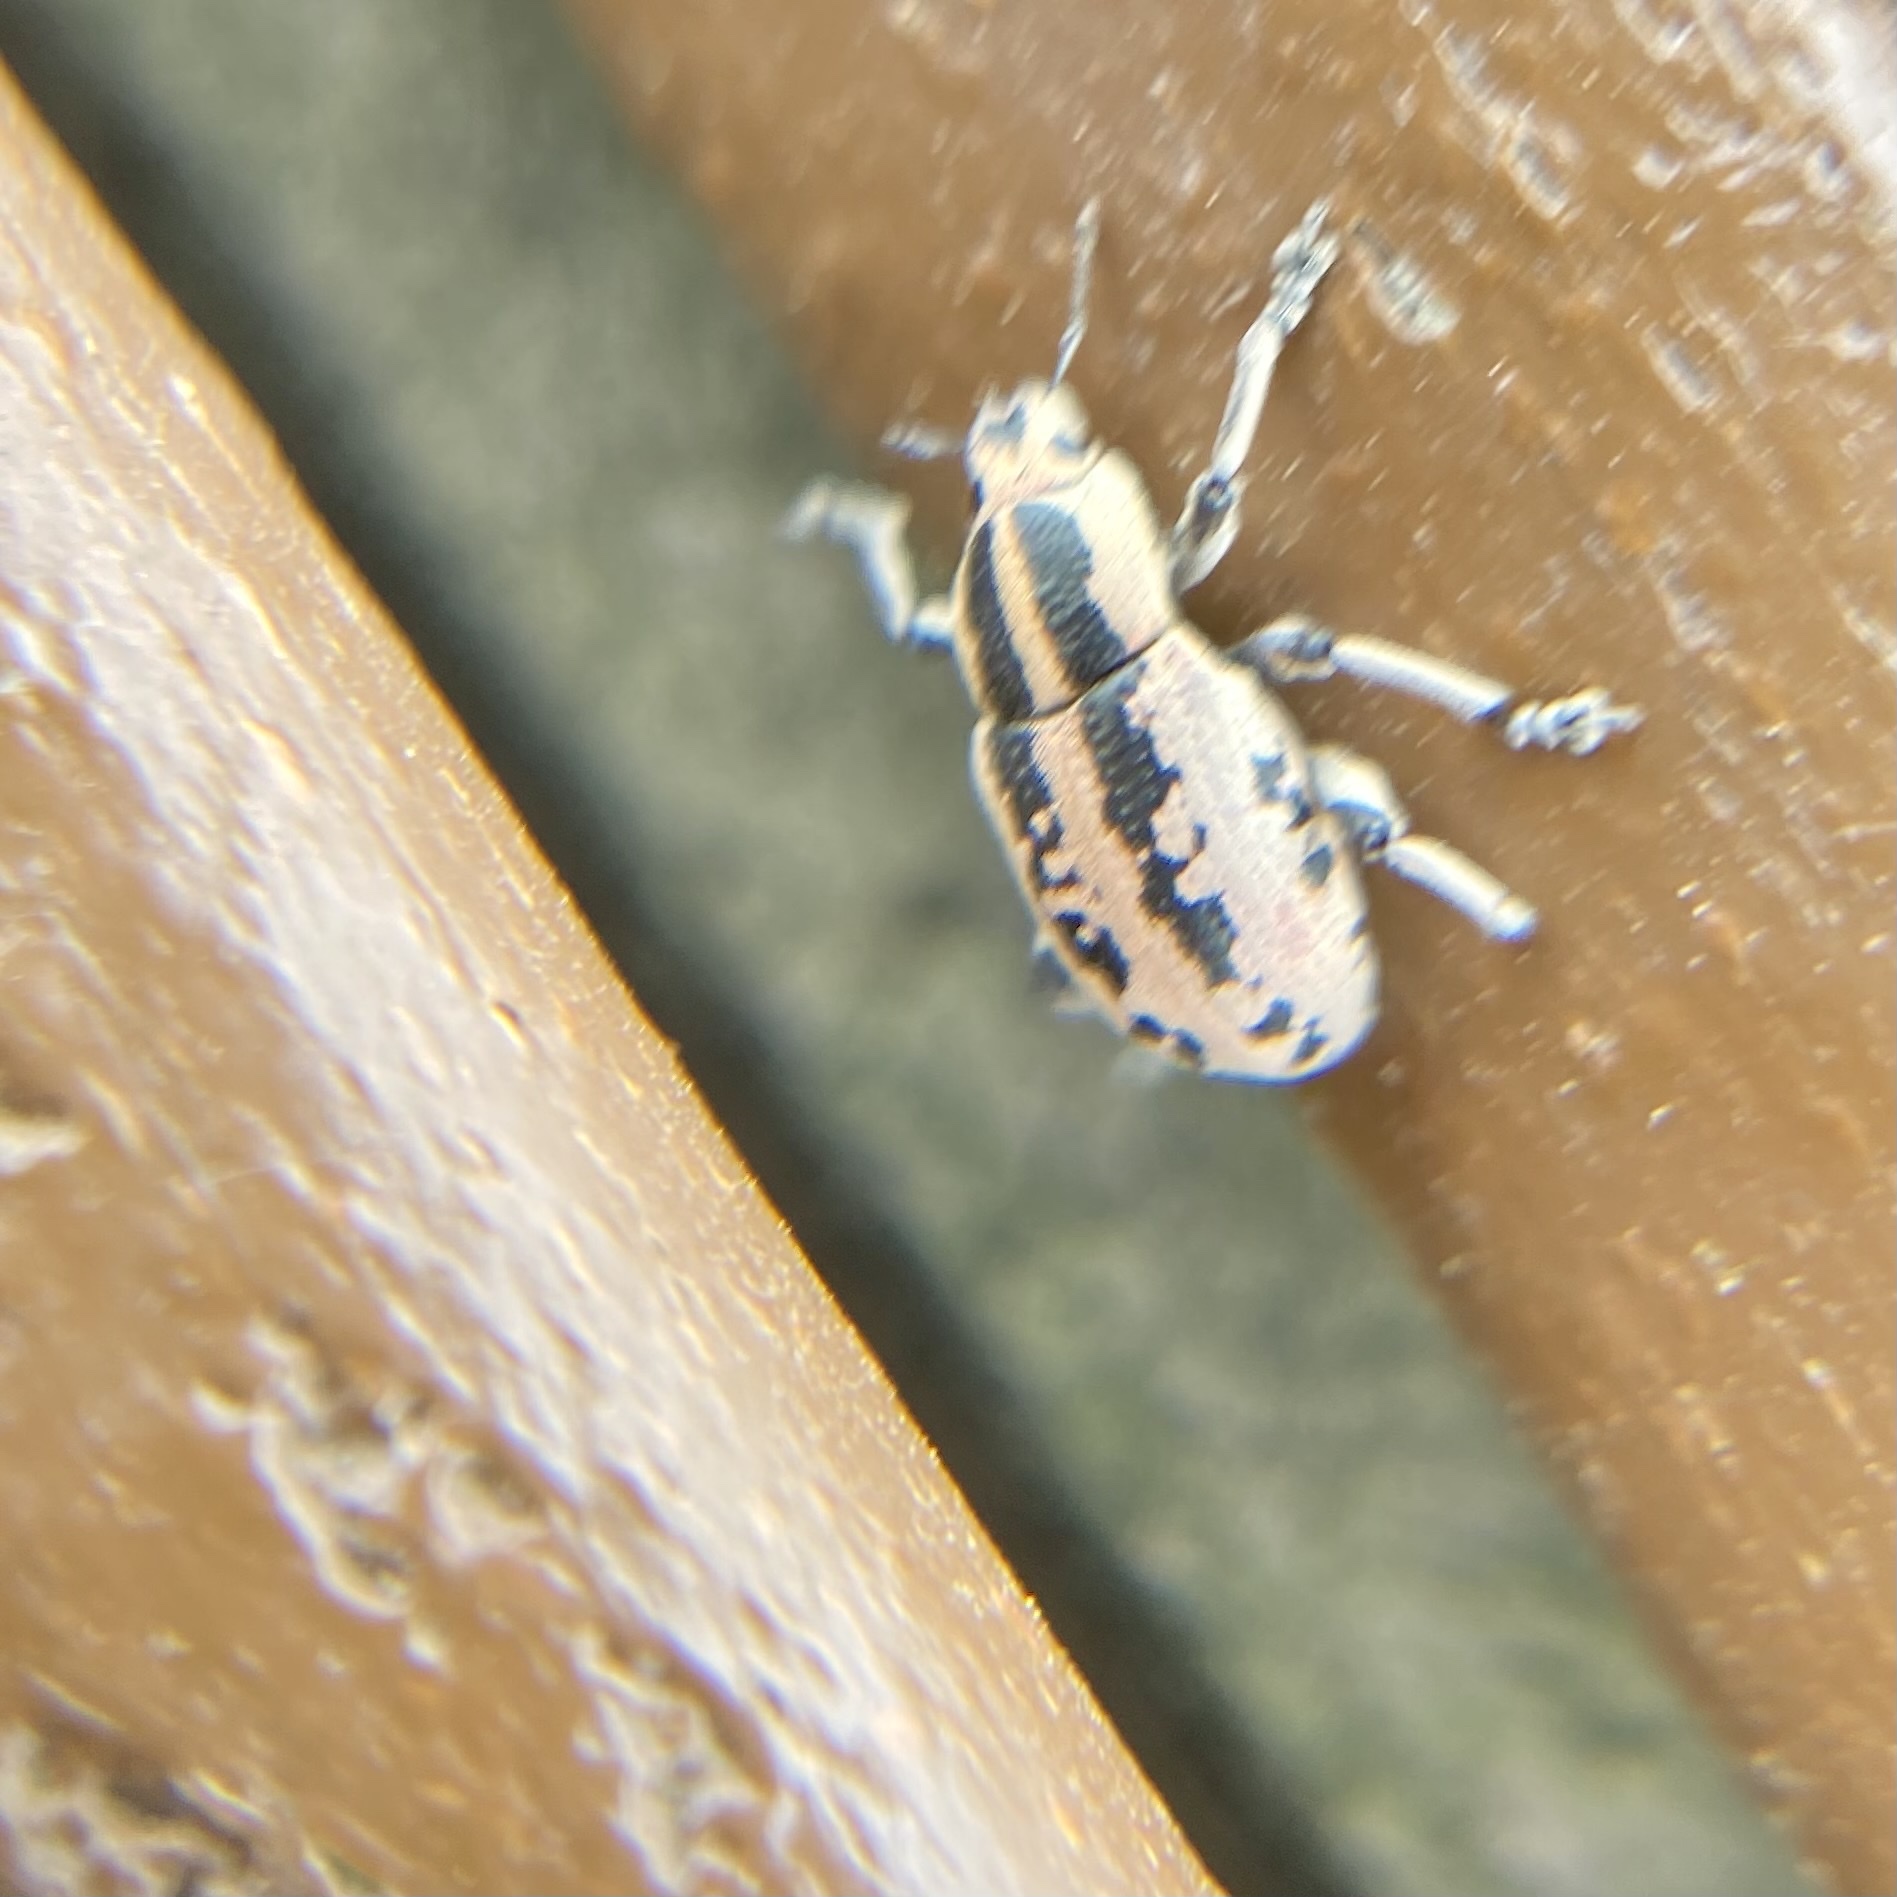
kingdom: Animalia
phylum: Arthropoda
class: Insecta
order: Coleoptera
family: Curculionidae
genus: Eudiagogus
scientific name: Eudiagogus rosenschoeldi
